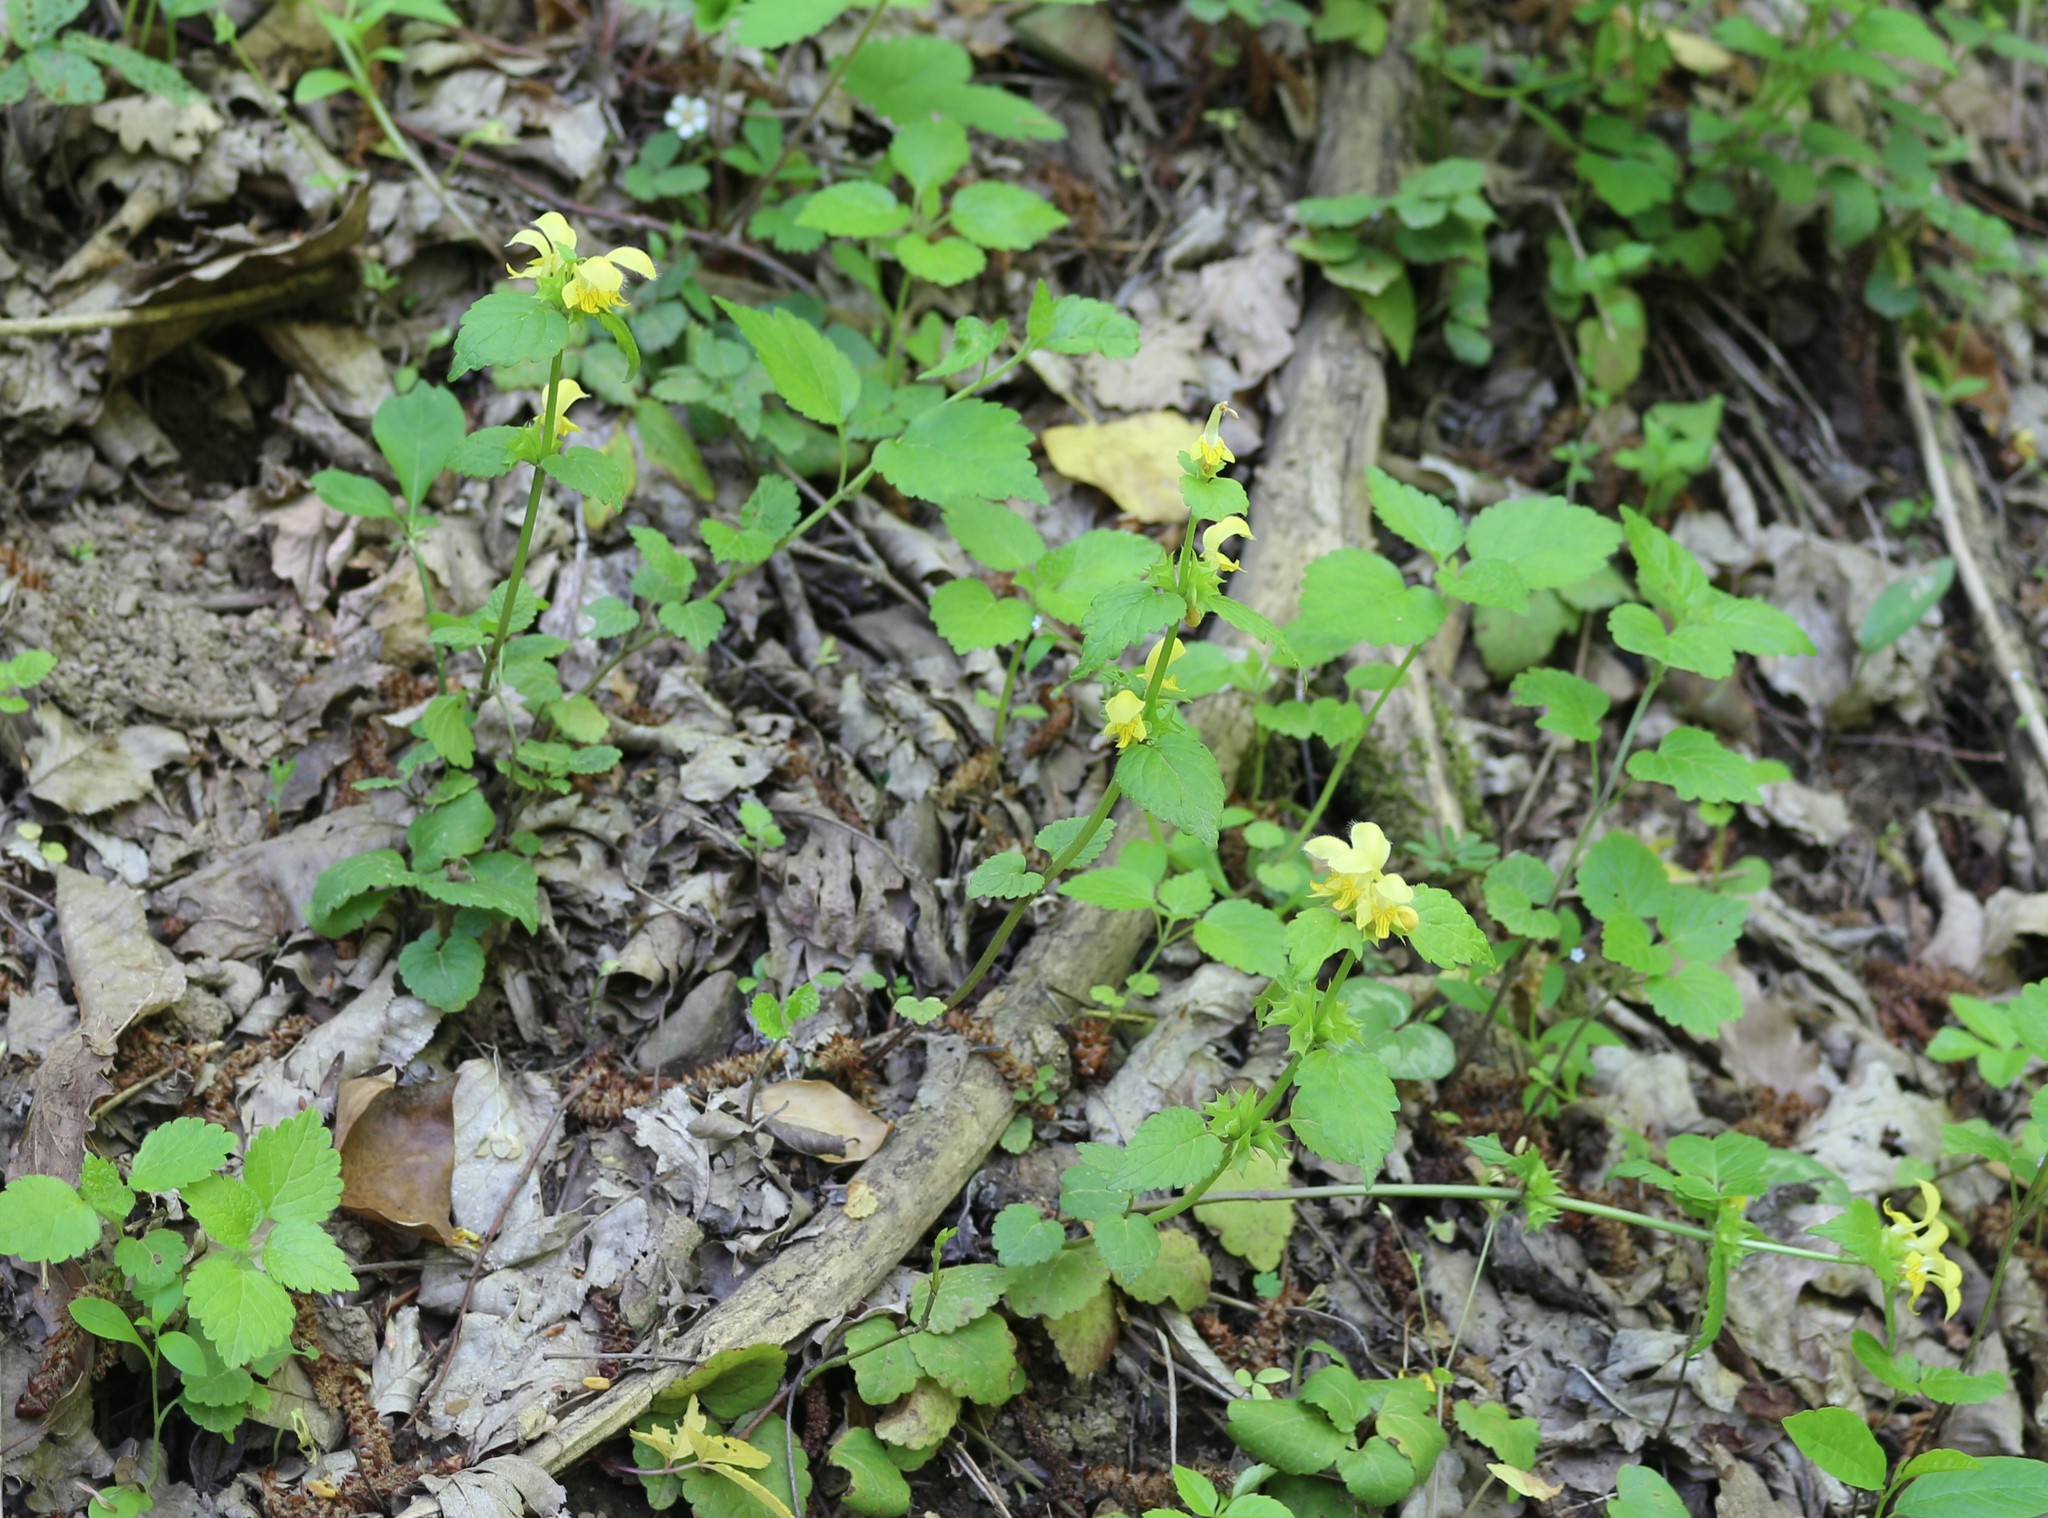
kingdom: Plantae
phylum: Tracheophyta
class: Magnoliopsida
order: Lamiales
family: Lamiaceae
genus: Lamium
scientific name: Lamium galeobdolon
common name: Yellow archangel
